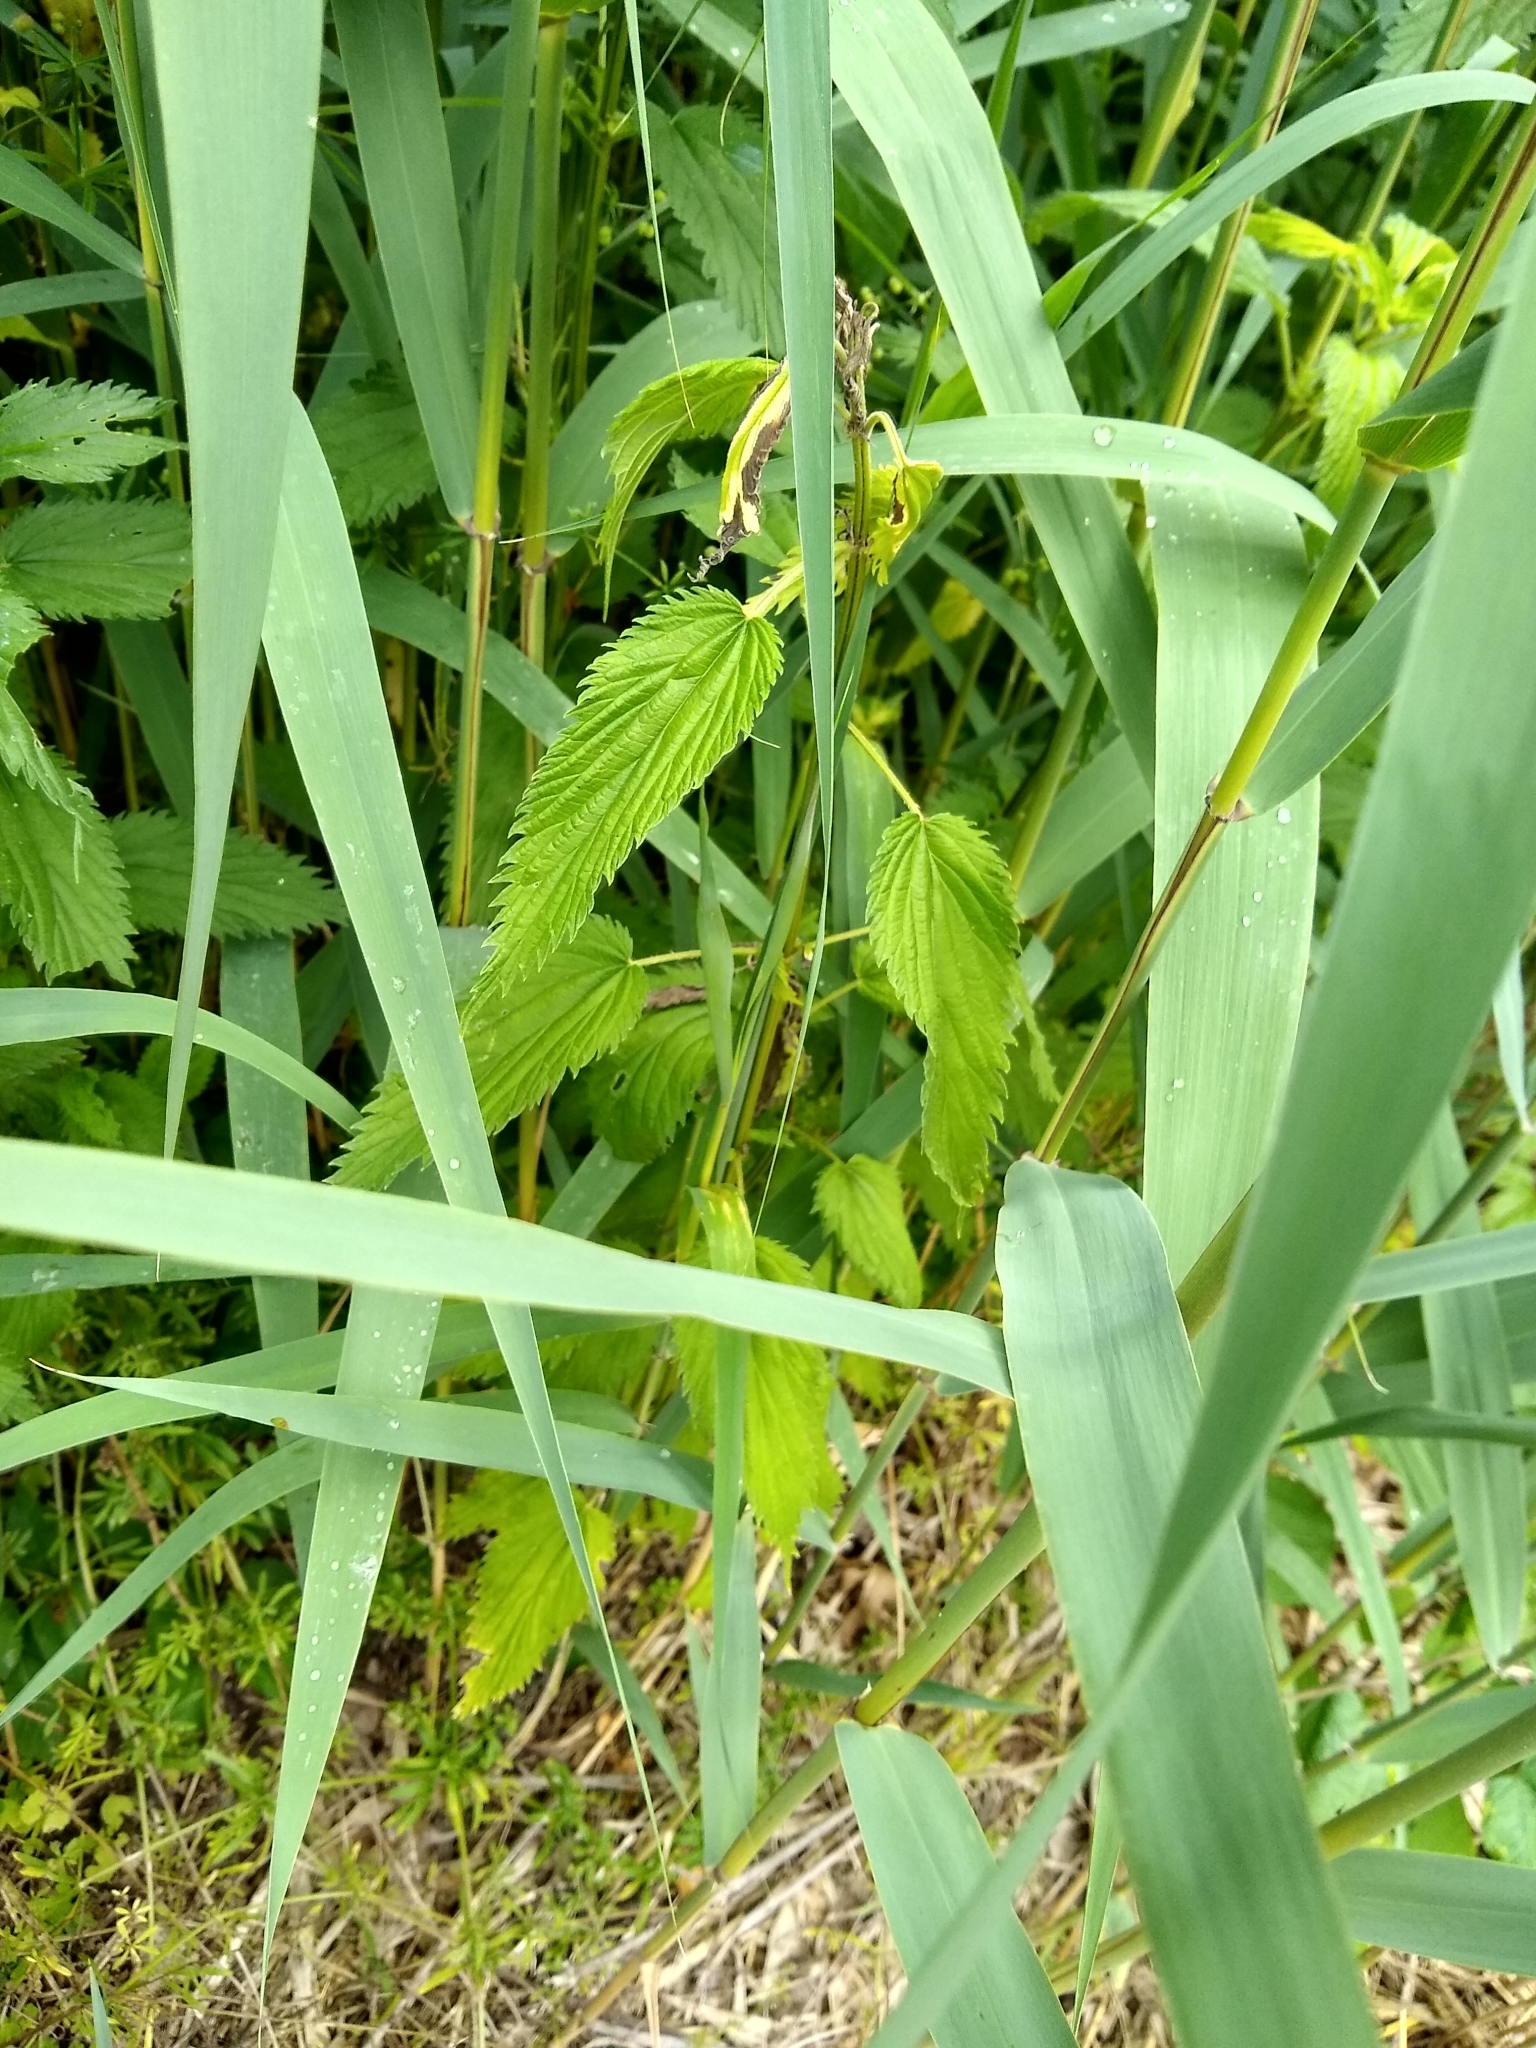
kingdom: Plantae
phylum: Tracheophyta
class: Magnoliopsida
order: Rosales
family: Urticaceae
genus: Urtica
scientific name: Urtica dioica
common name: Common nettle
